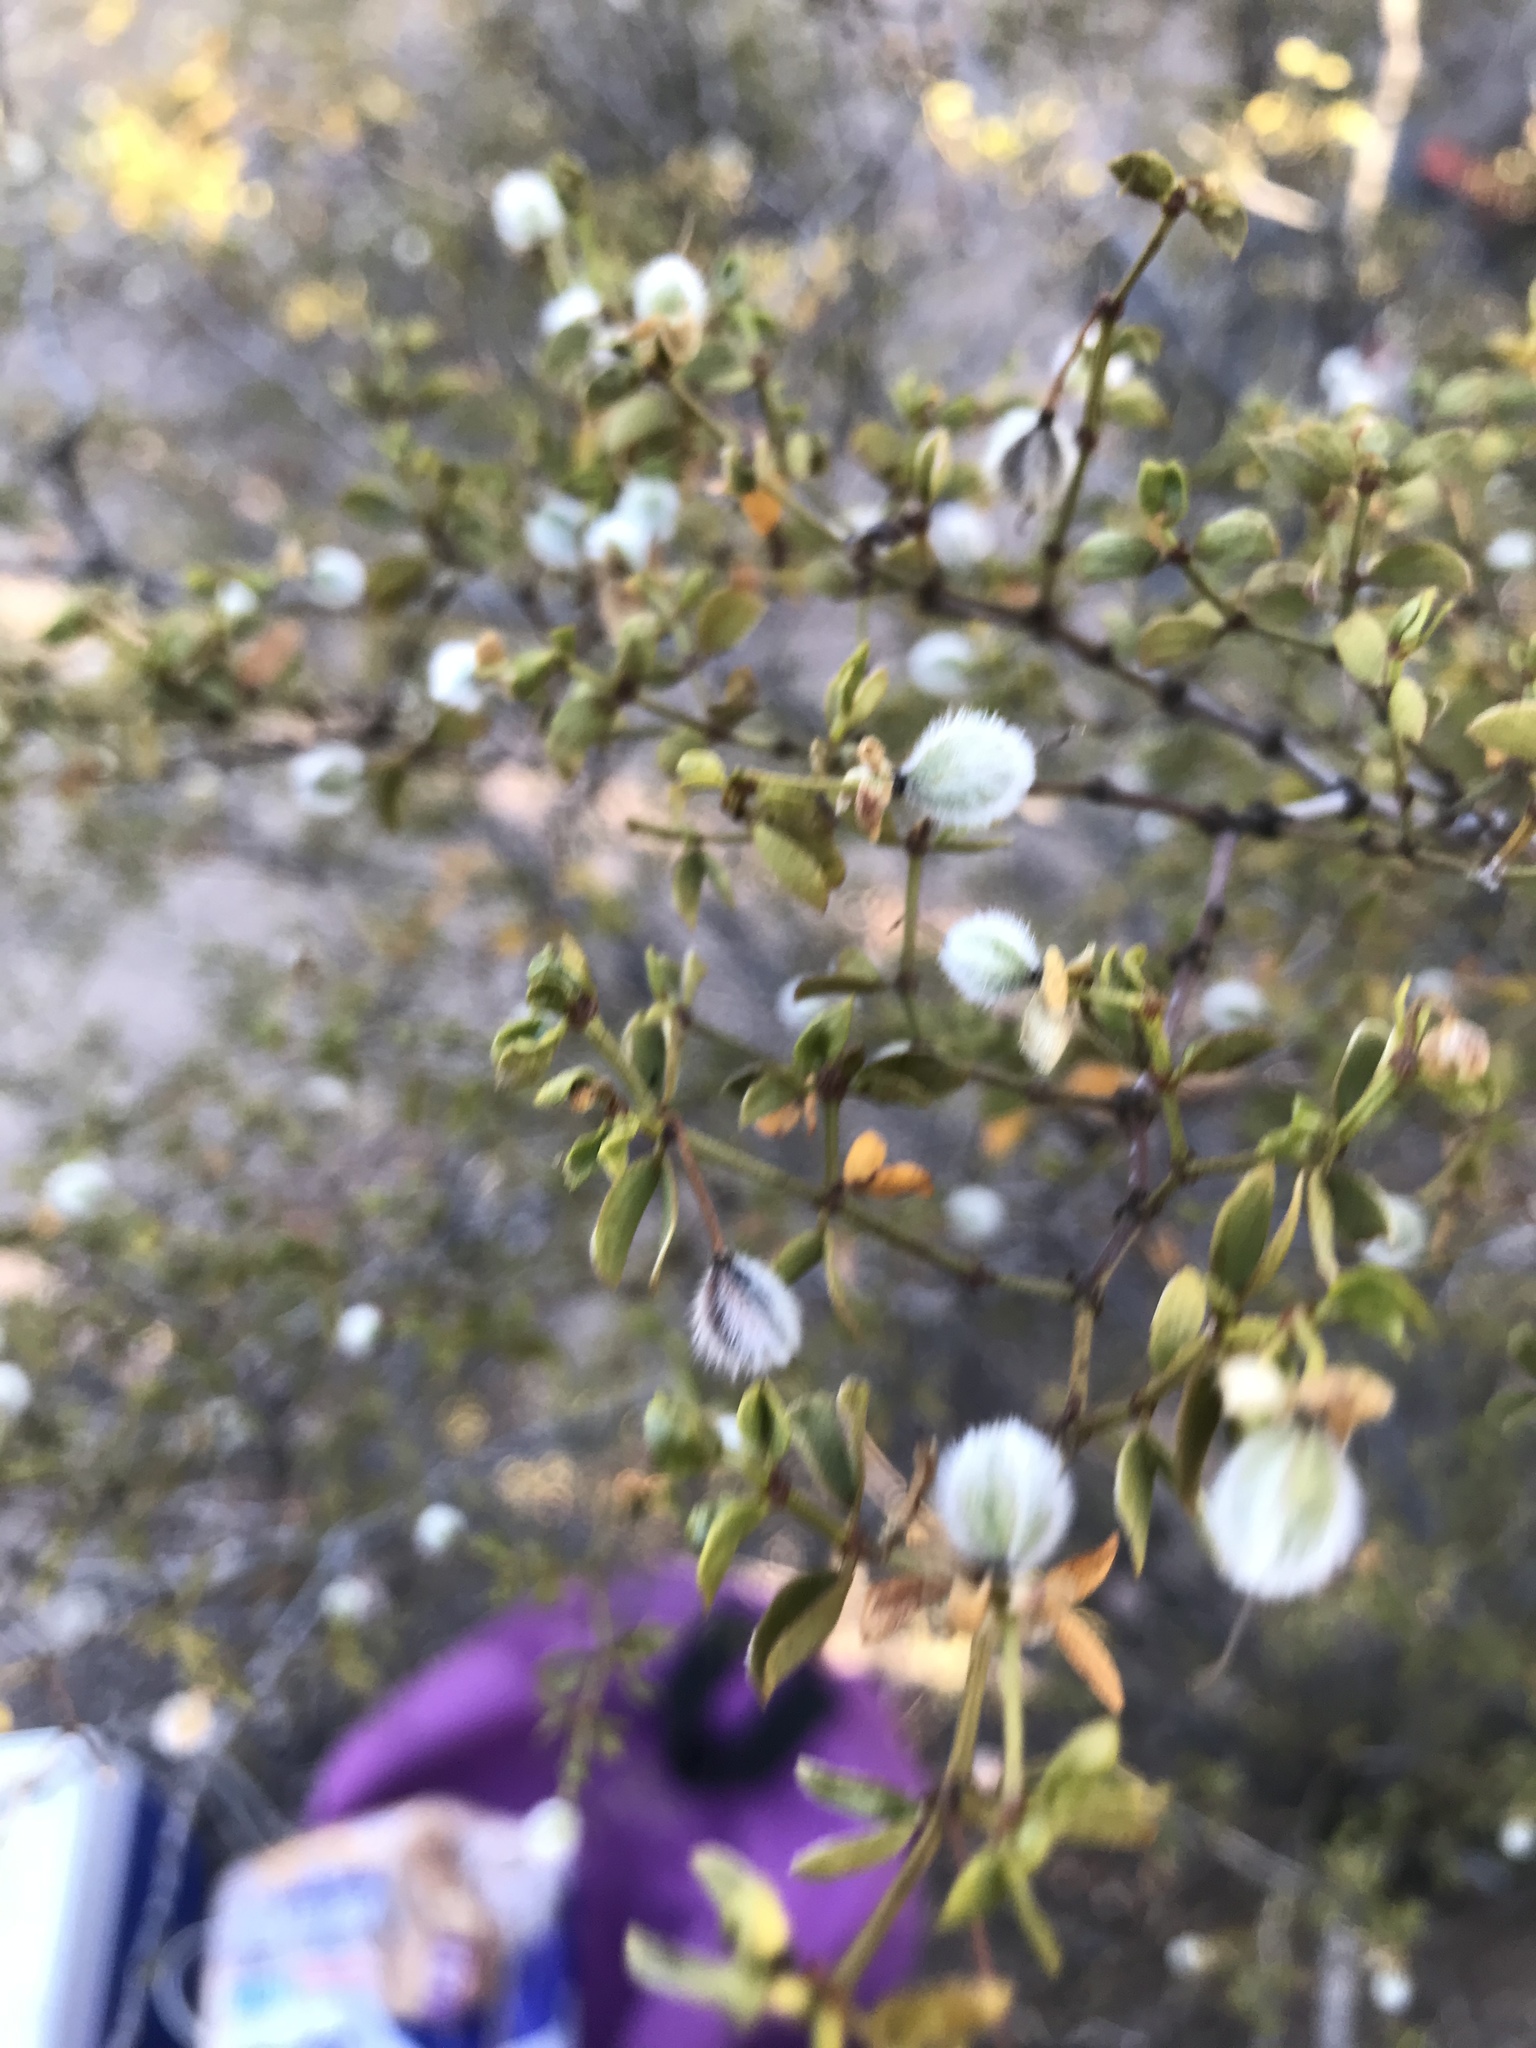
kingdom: Plantae
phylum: Tracheophyta
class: Magnoliopsida
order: Zygophyllales
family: Zygophyllaceae
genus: Larrea
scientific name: Larrea tridentata
